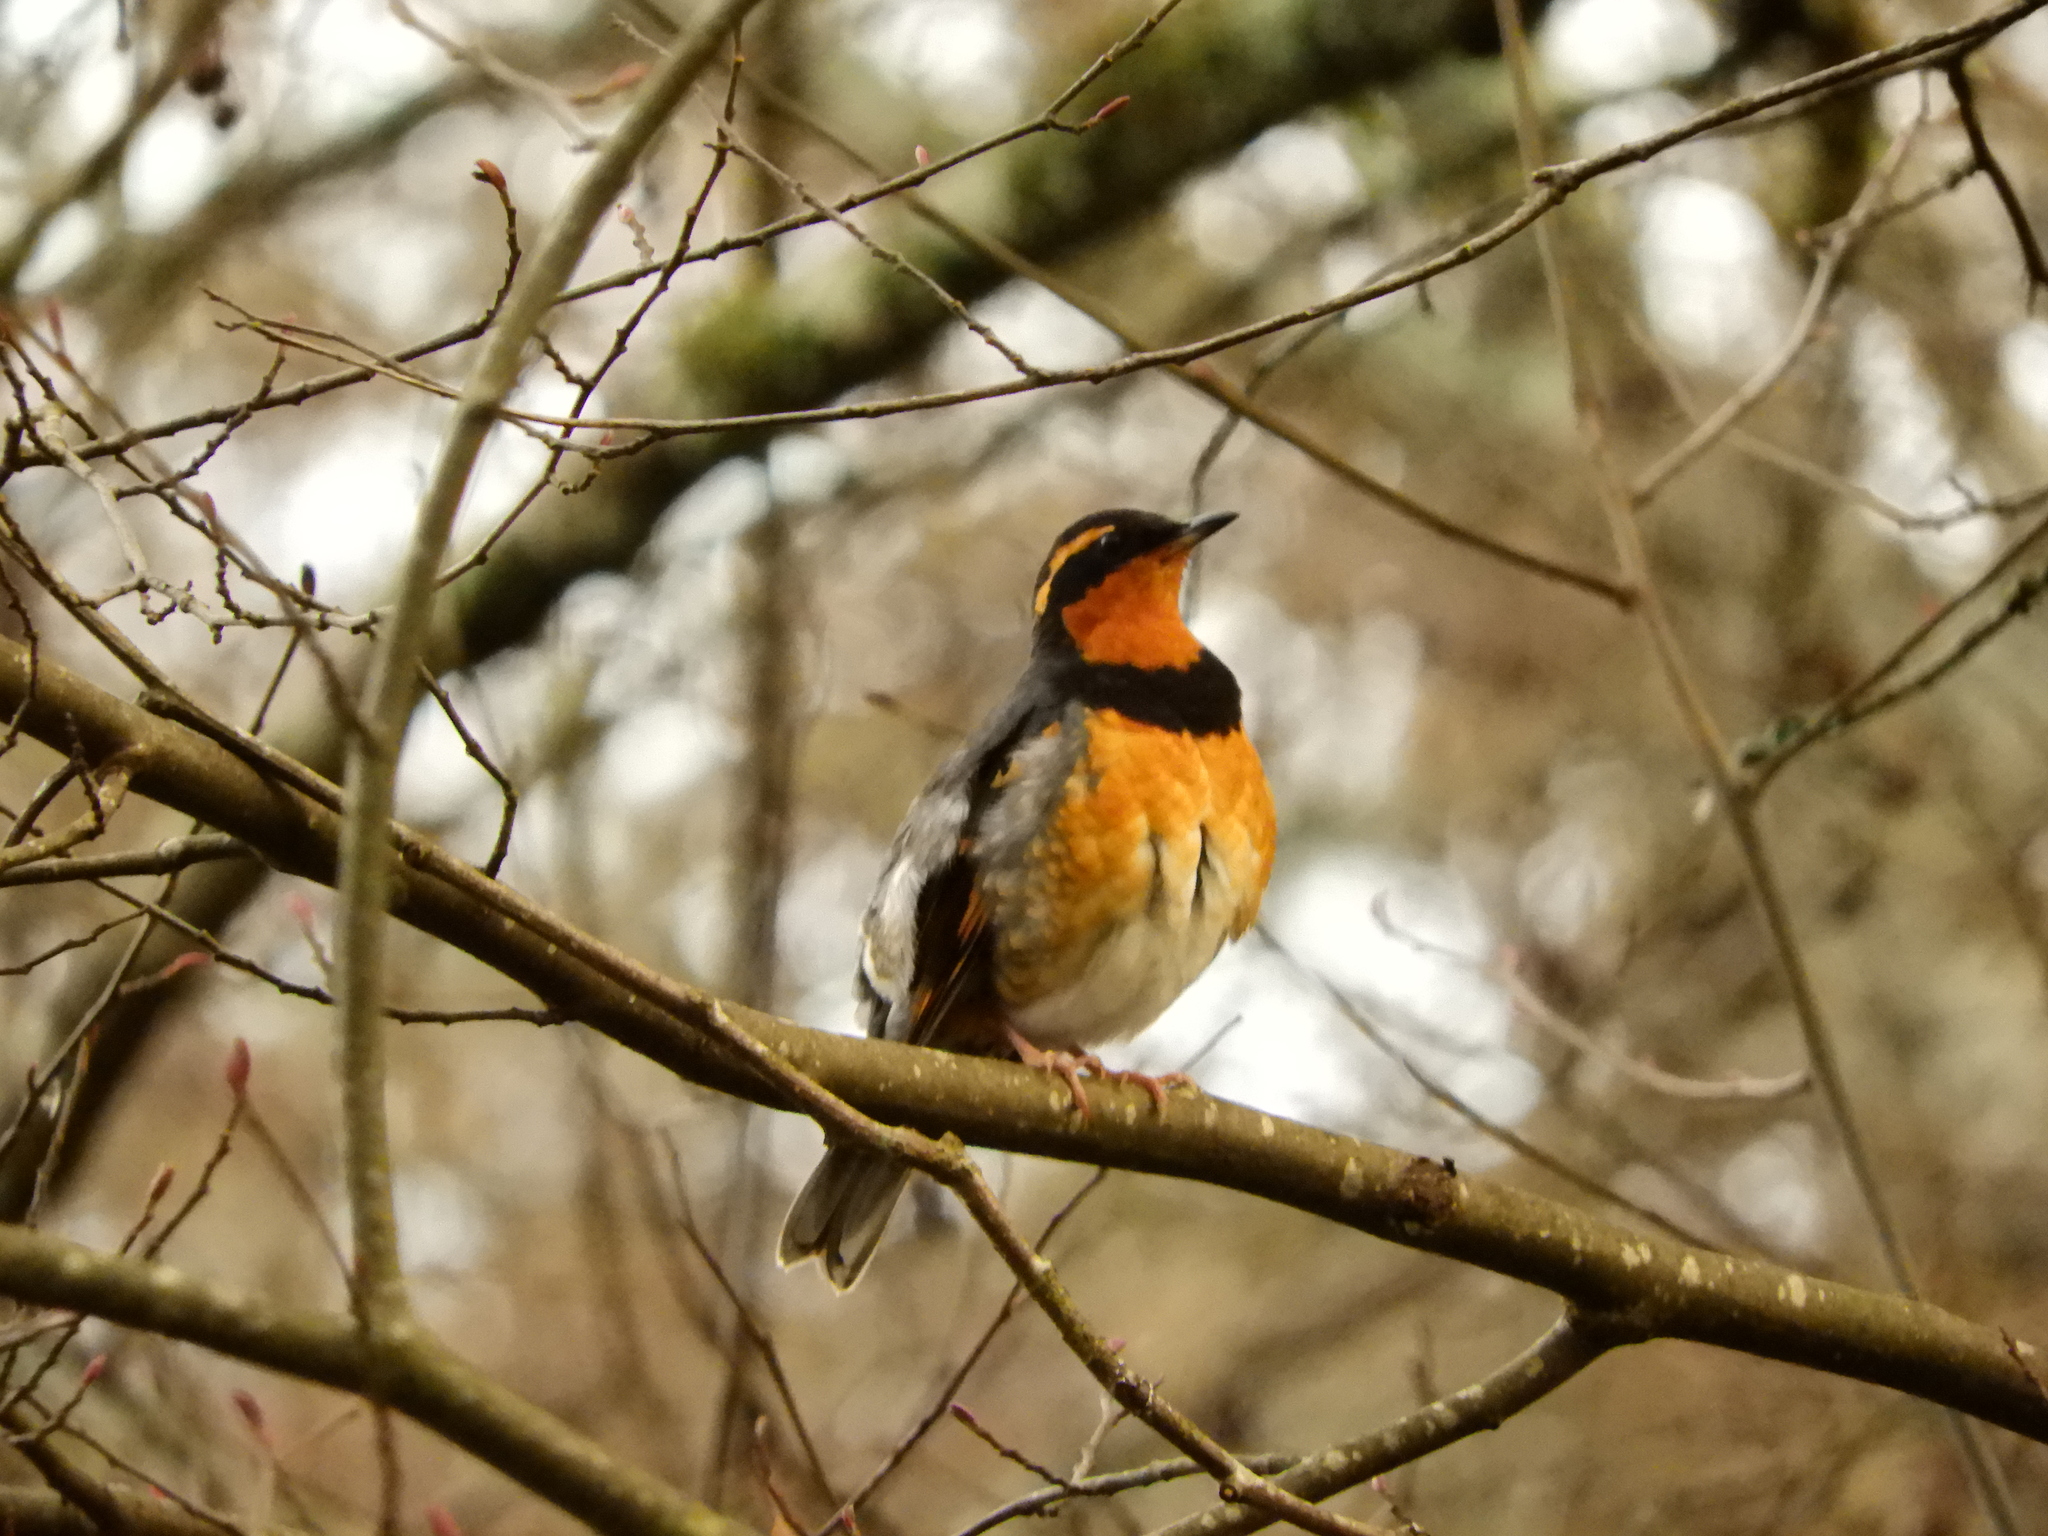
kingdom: Animalia
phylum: Chordata
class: Aves
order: Passeriformes
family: Turdidae
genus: Ixoreus
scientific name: Ixoreus naevius
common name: Varied thrush
